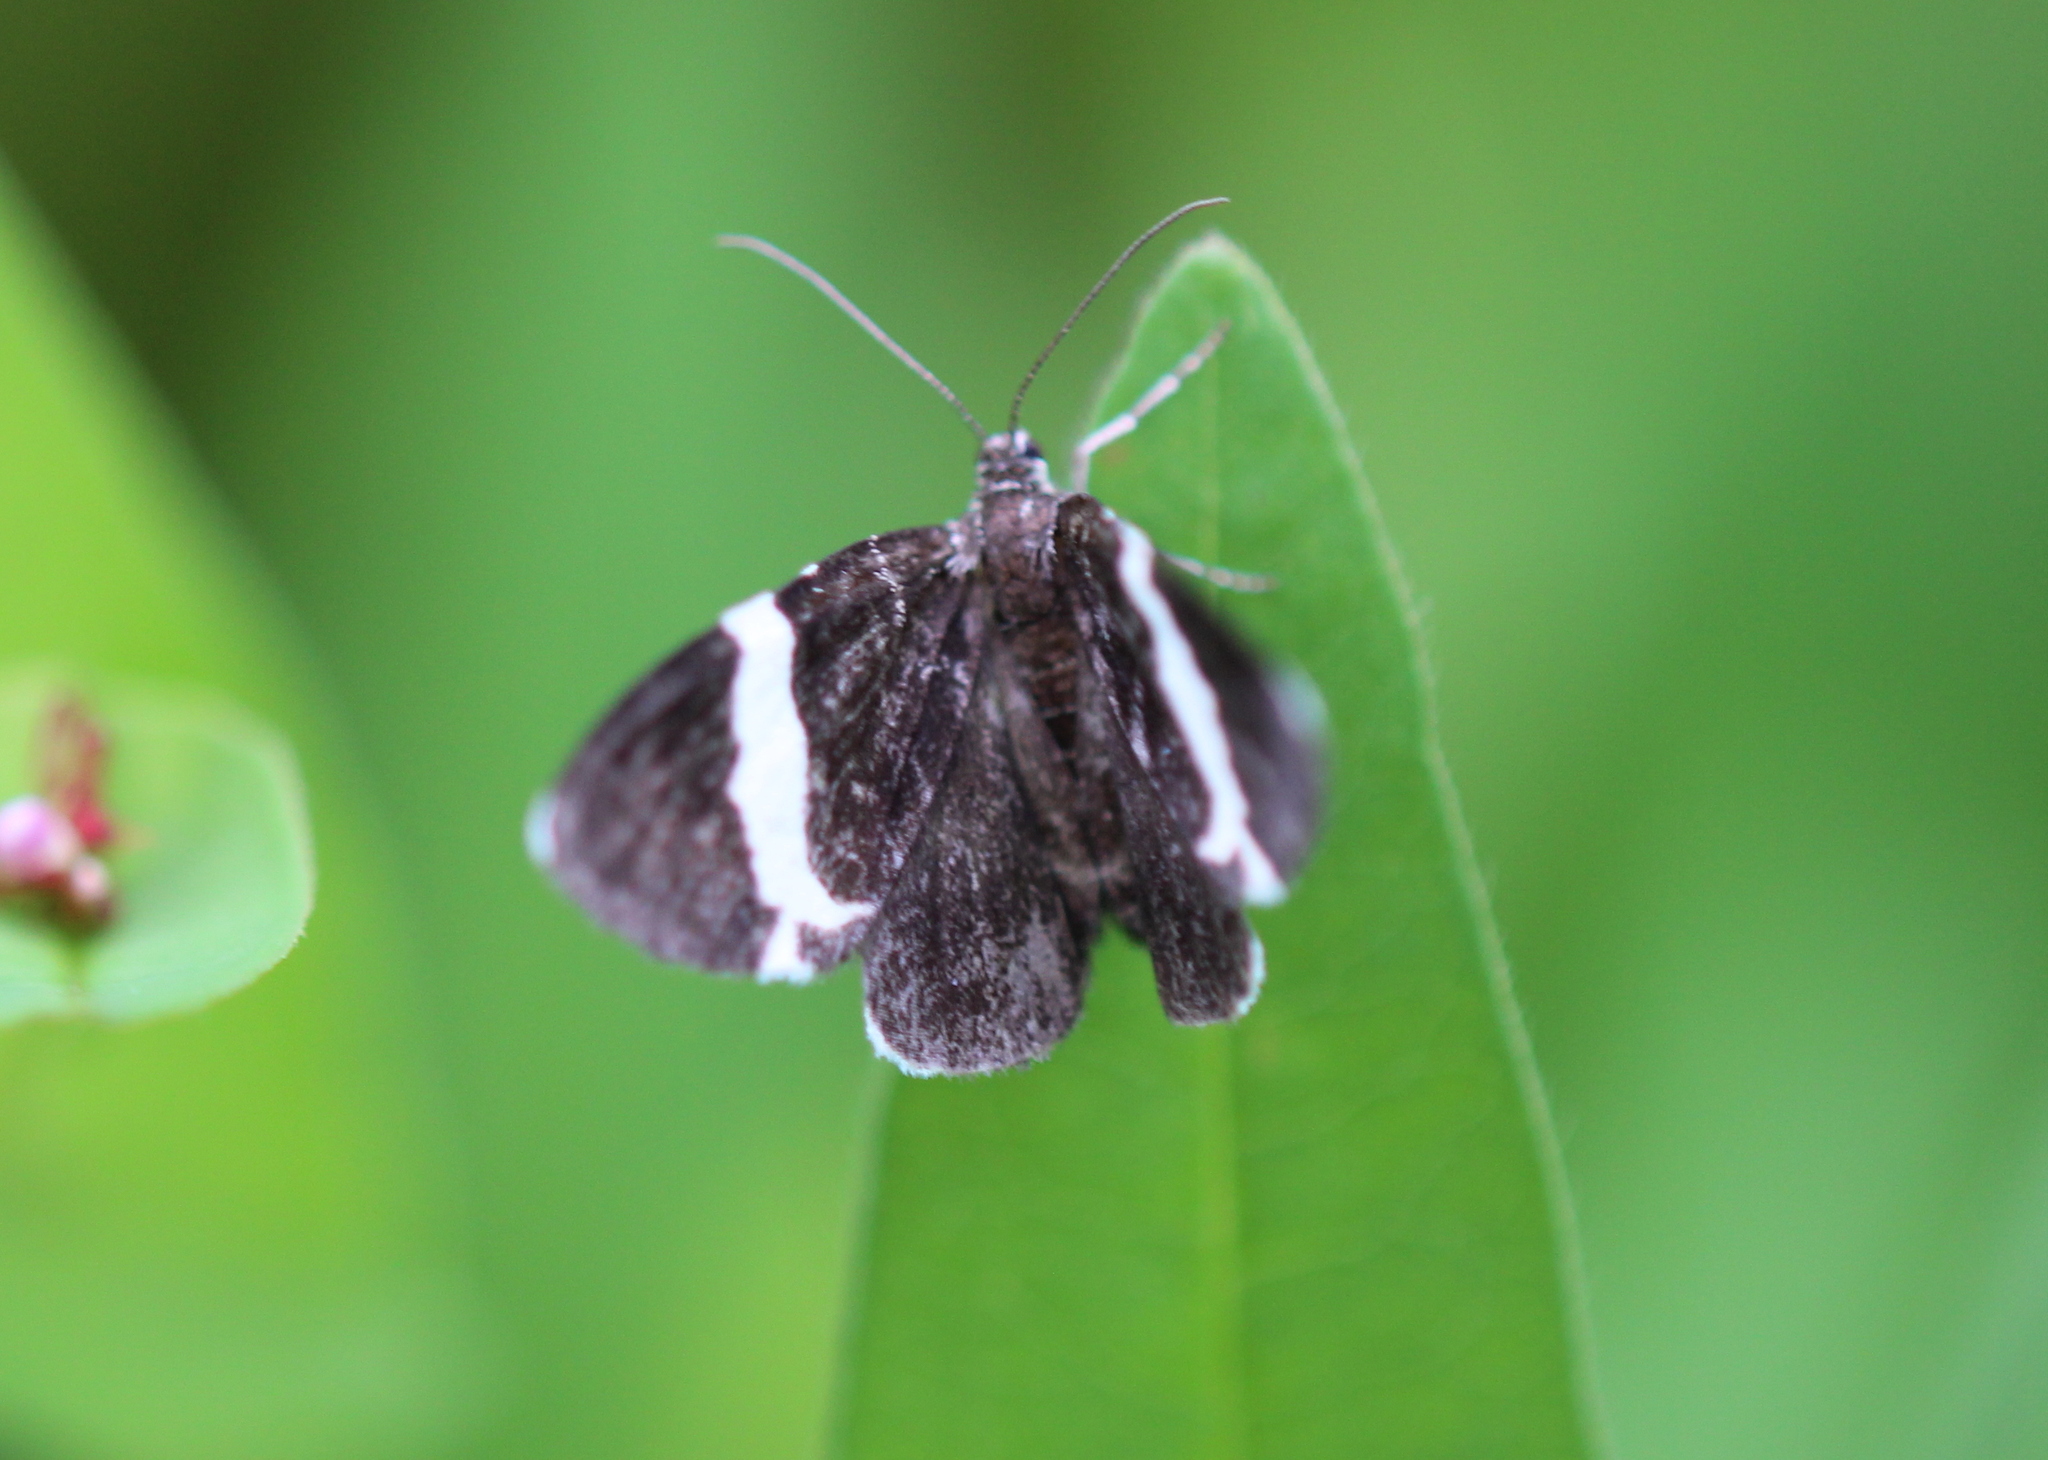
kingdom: Animalia
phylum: Arthropoda
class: Insecta
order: Lepidoptera
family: Geometridae
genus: Trichodezia
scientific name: Trichodezia albovittata
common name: White striped black
